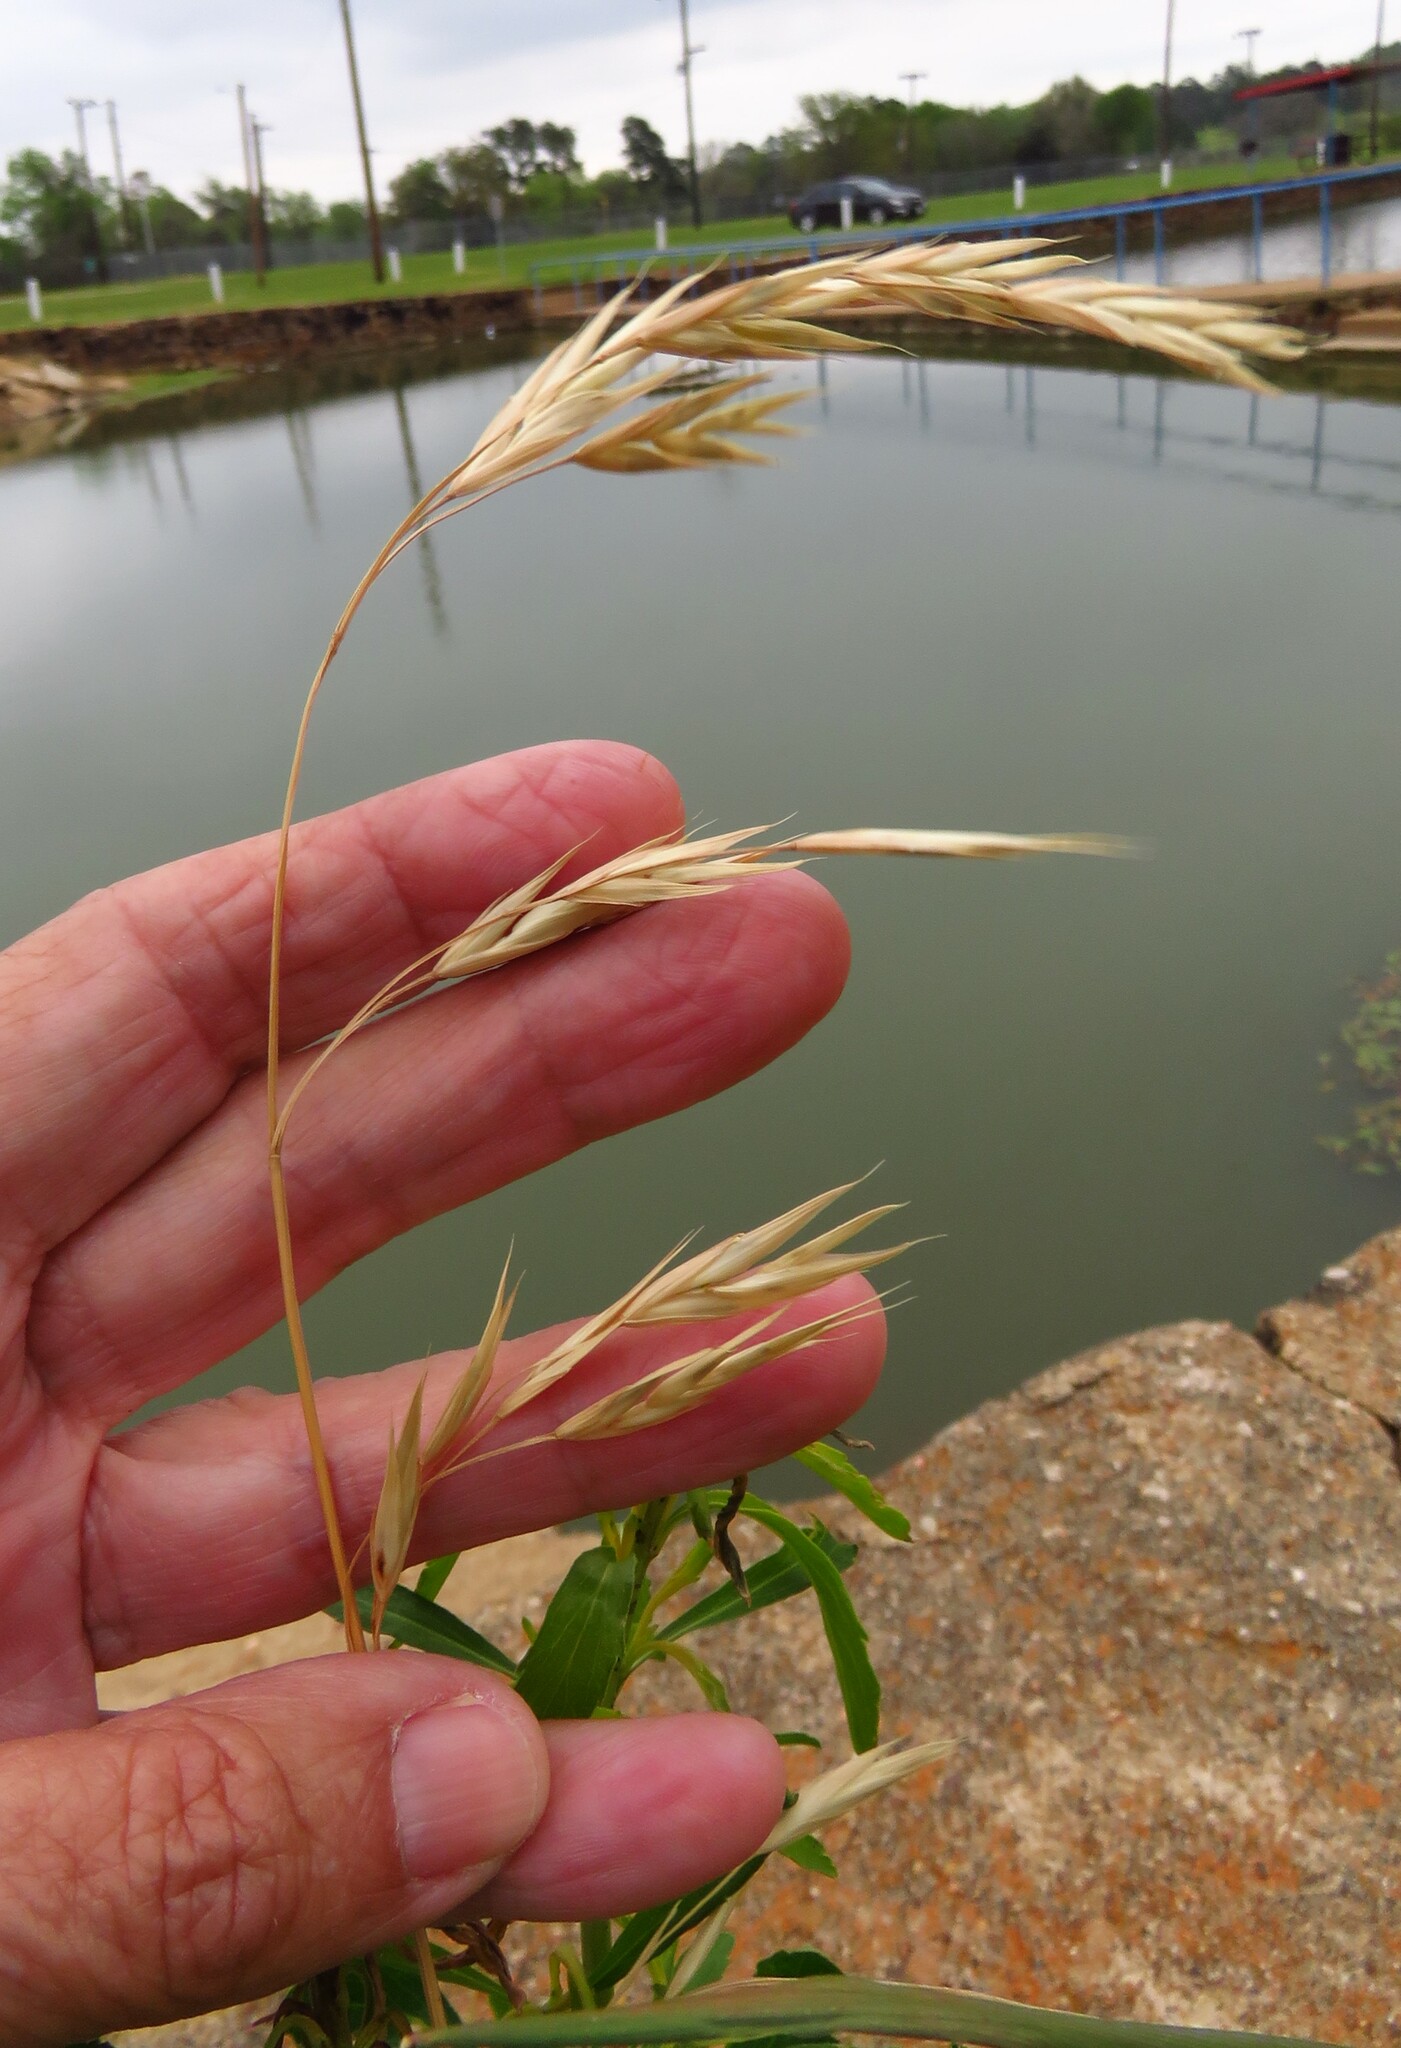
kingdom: Plantae
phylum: Tracheophyta
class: Liliopsida
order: Poales
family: Poaceae
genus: Bromus
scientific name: Bromus catharticus
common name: Rescuegrass
